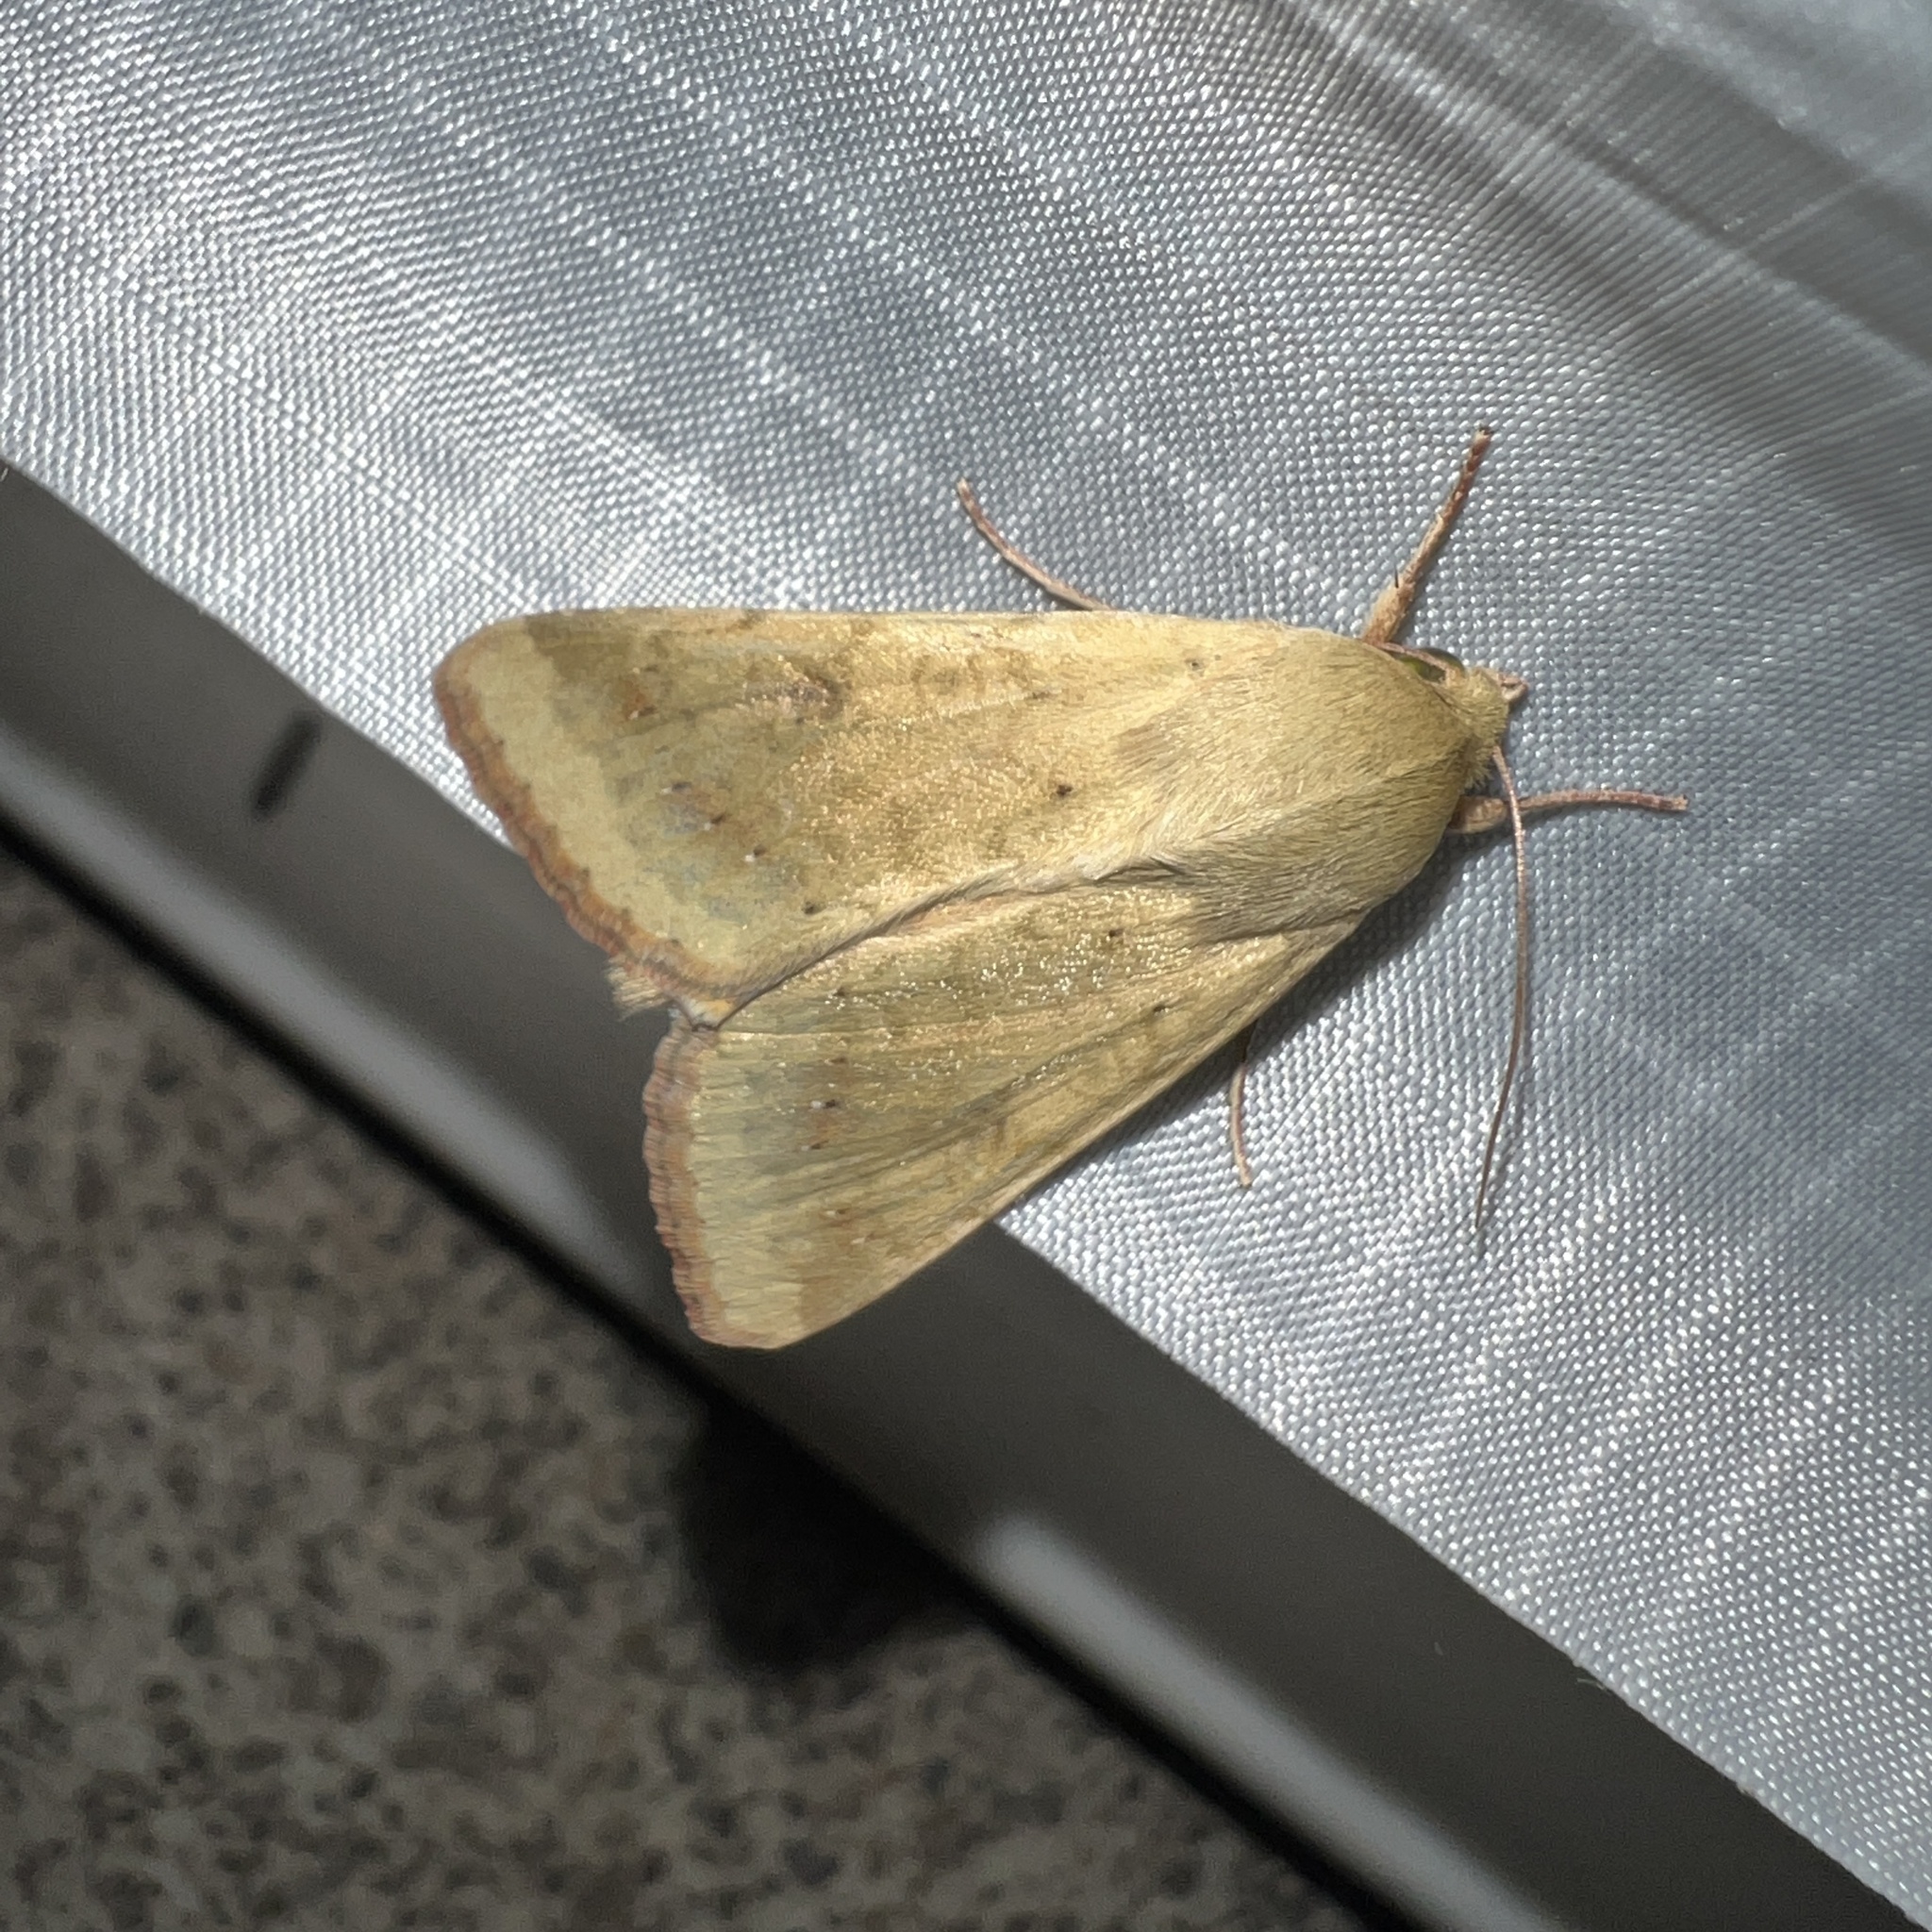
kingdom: Animalia
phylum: Arthropoda
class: Insecta
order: Lepidoptera
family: Noctuidae
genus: Helicoverpa
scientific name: Helicoverpa zea
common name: Bollworm
